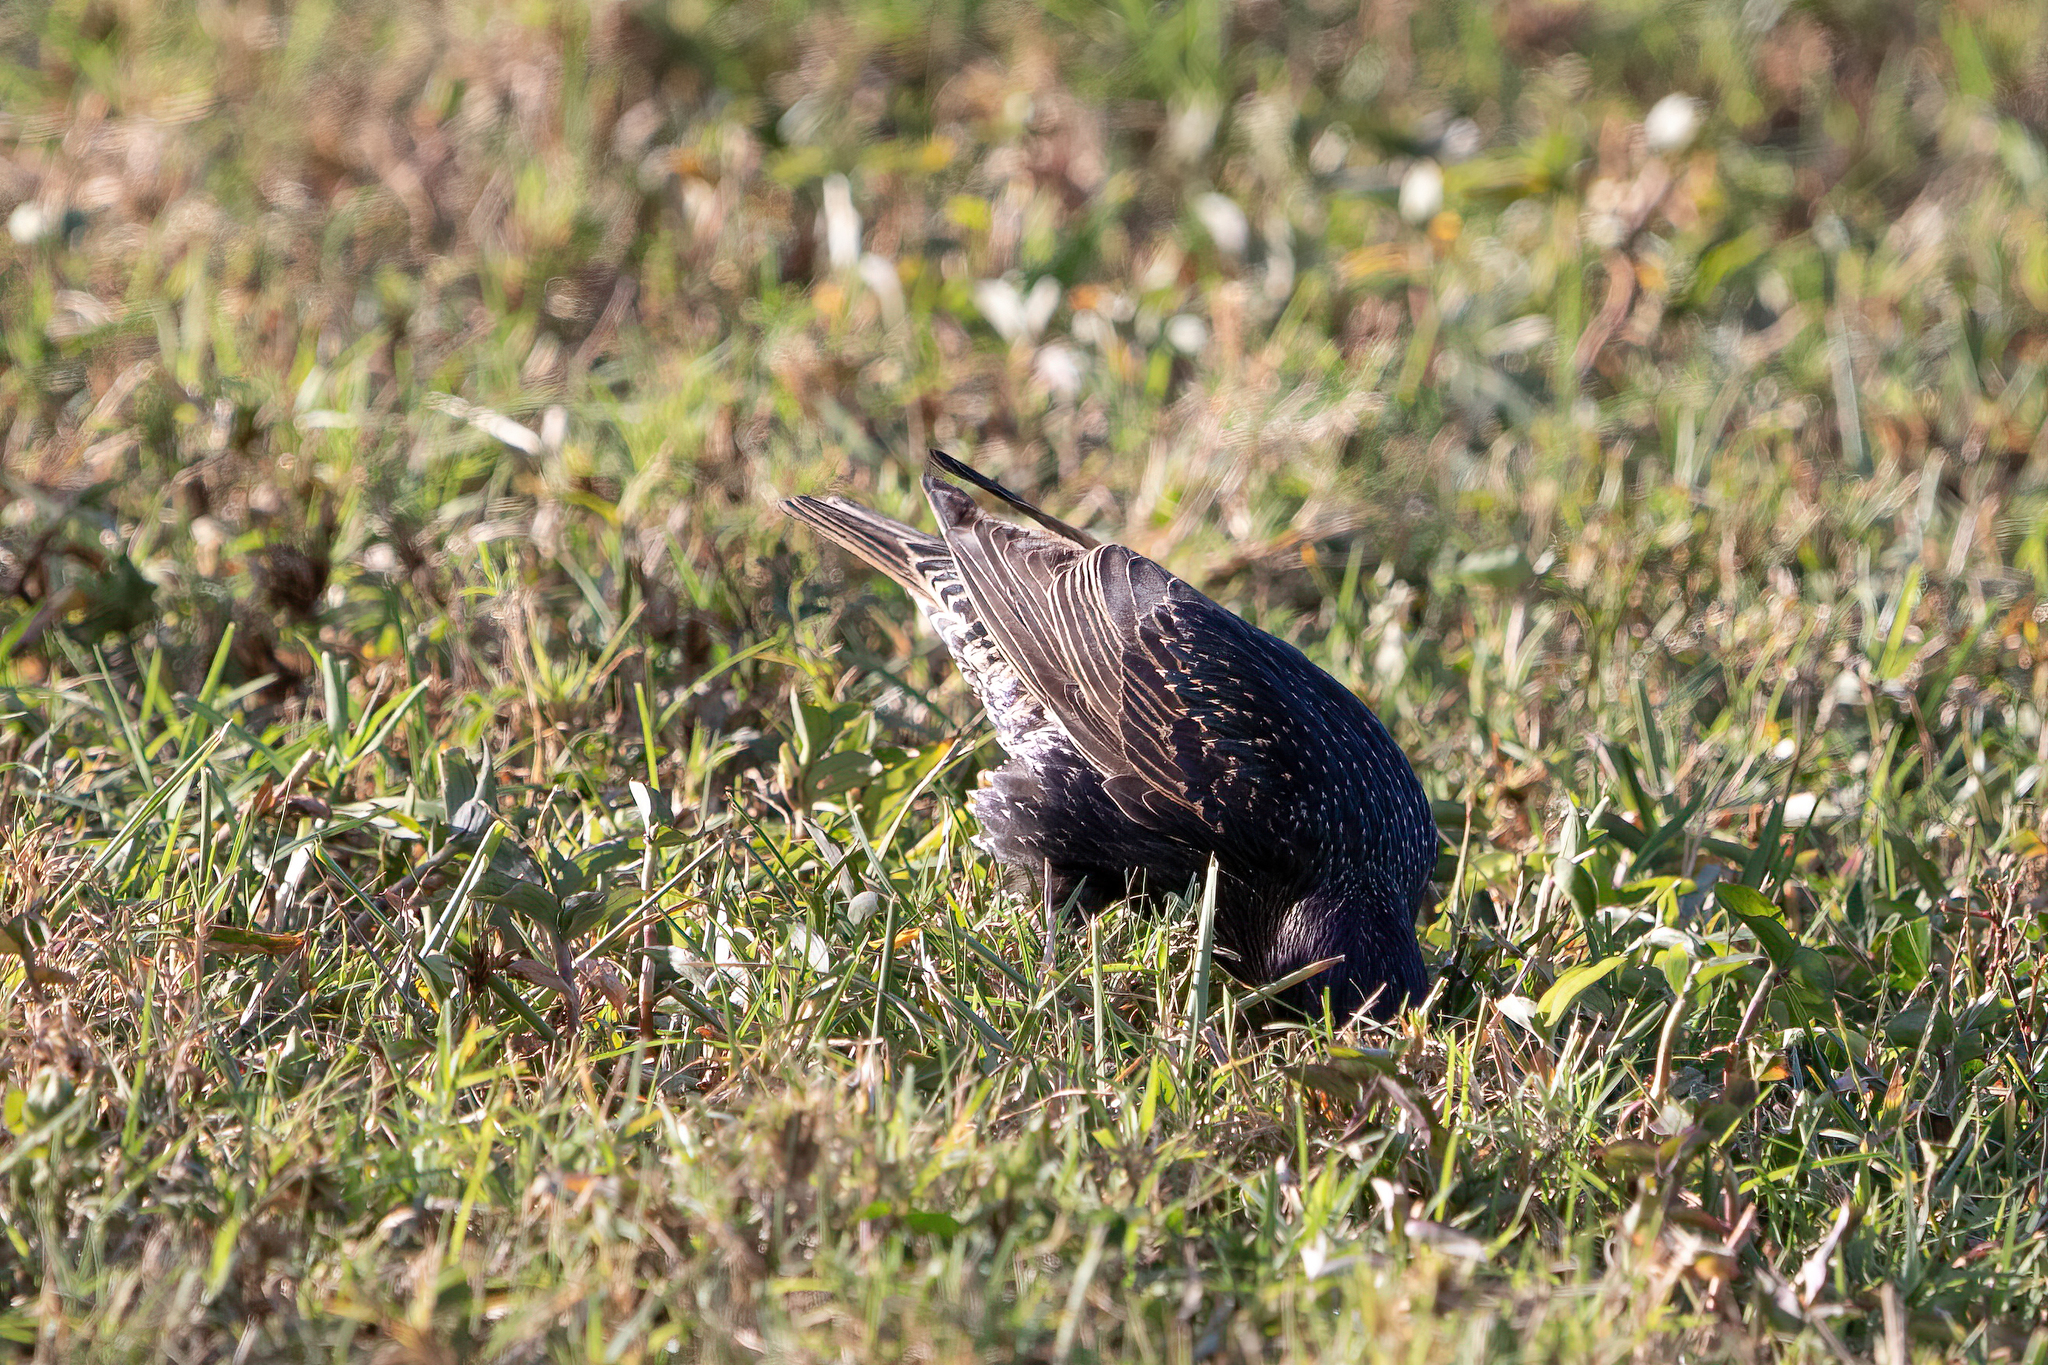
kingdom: Animalia
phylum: Chordata
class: Aves
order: Passeriformes
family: Sturnidae
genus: Sturnus
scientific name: Sturnus vulgaris
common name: Common starling
